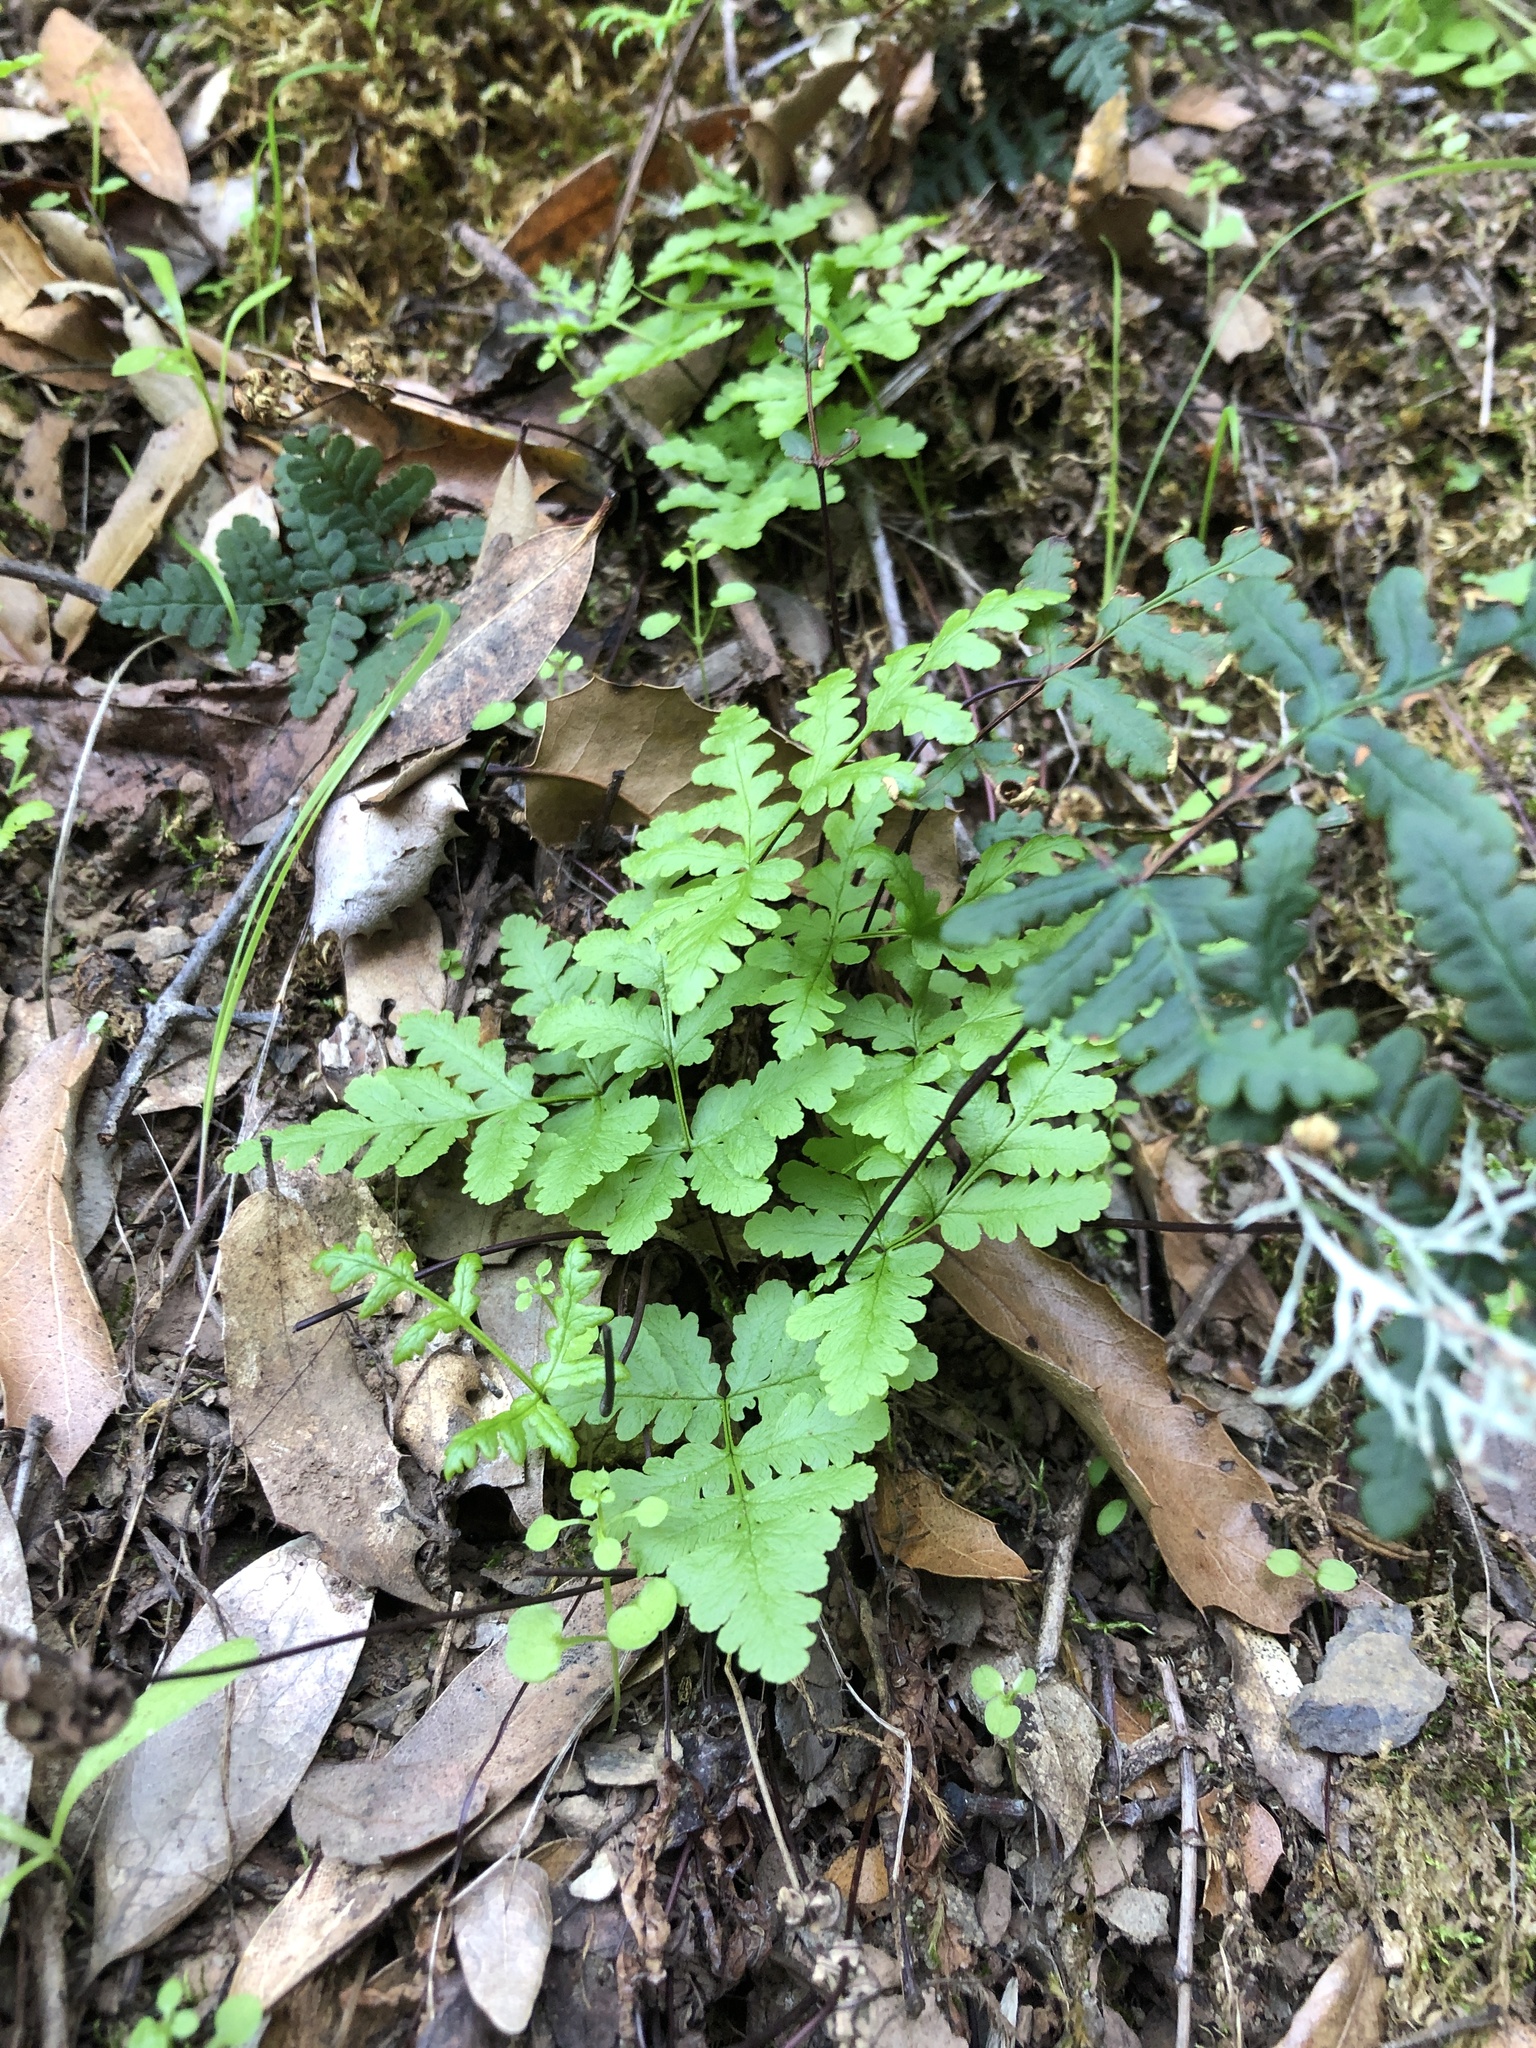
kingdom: Plantae
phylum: Tracheophyta
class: Polypodiopsida
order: Polypodiales
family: Pteridaceae
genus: Pentagramma
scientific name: Pentagramma triangularis
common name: Gold fern
